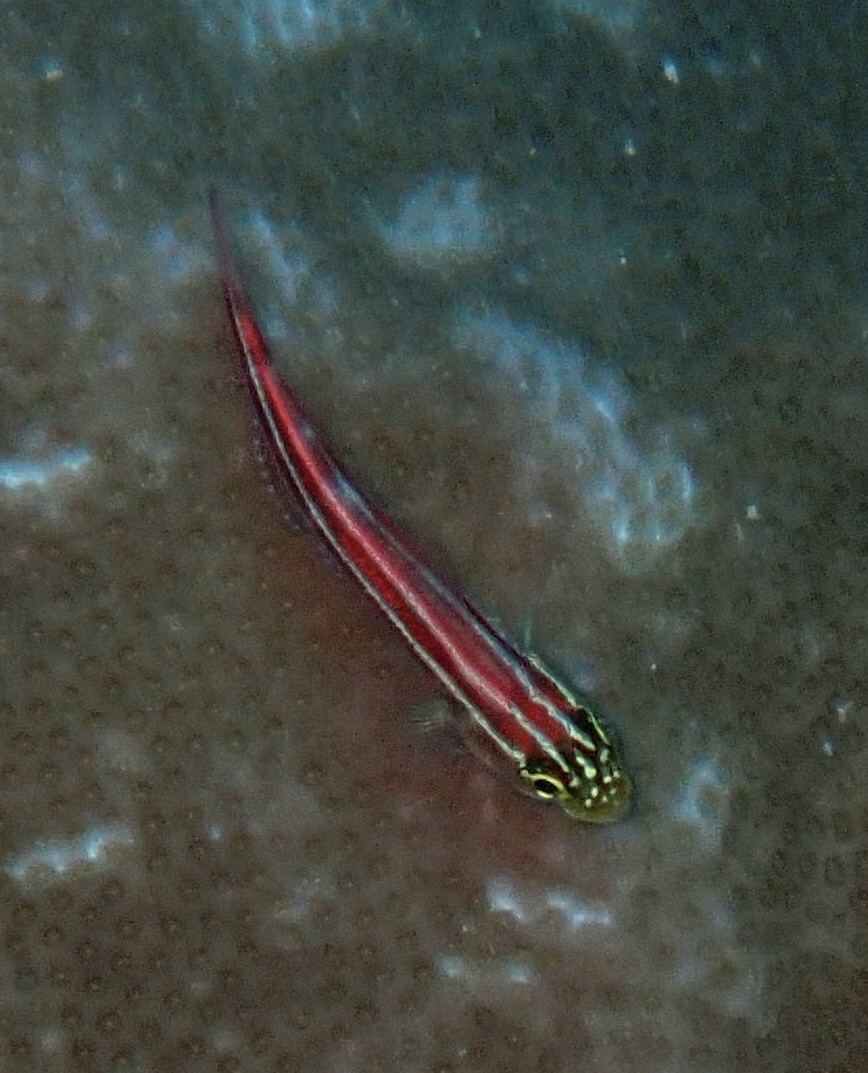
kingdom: Animalia
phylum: Chordata
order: Perciformes
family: Tripterygiidae
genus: Helcogramma
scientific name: Helcogramma striata
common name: Striped threefin
